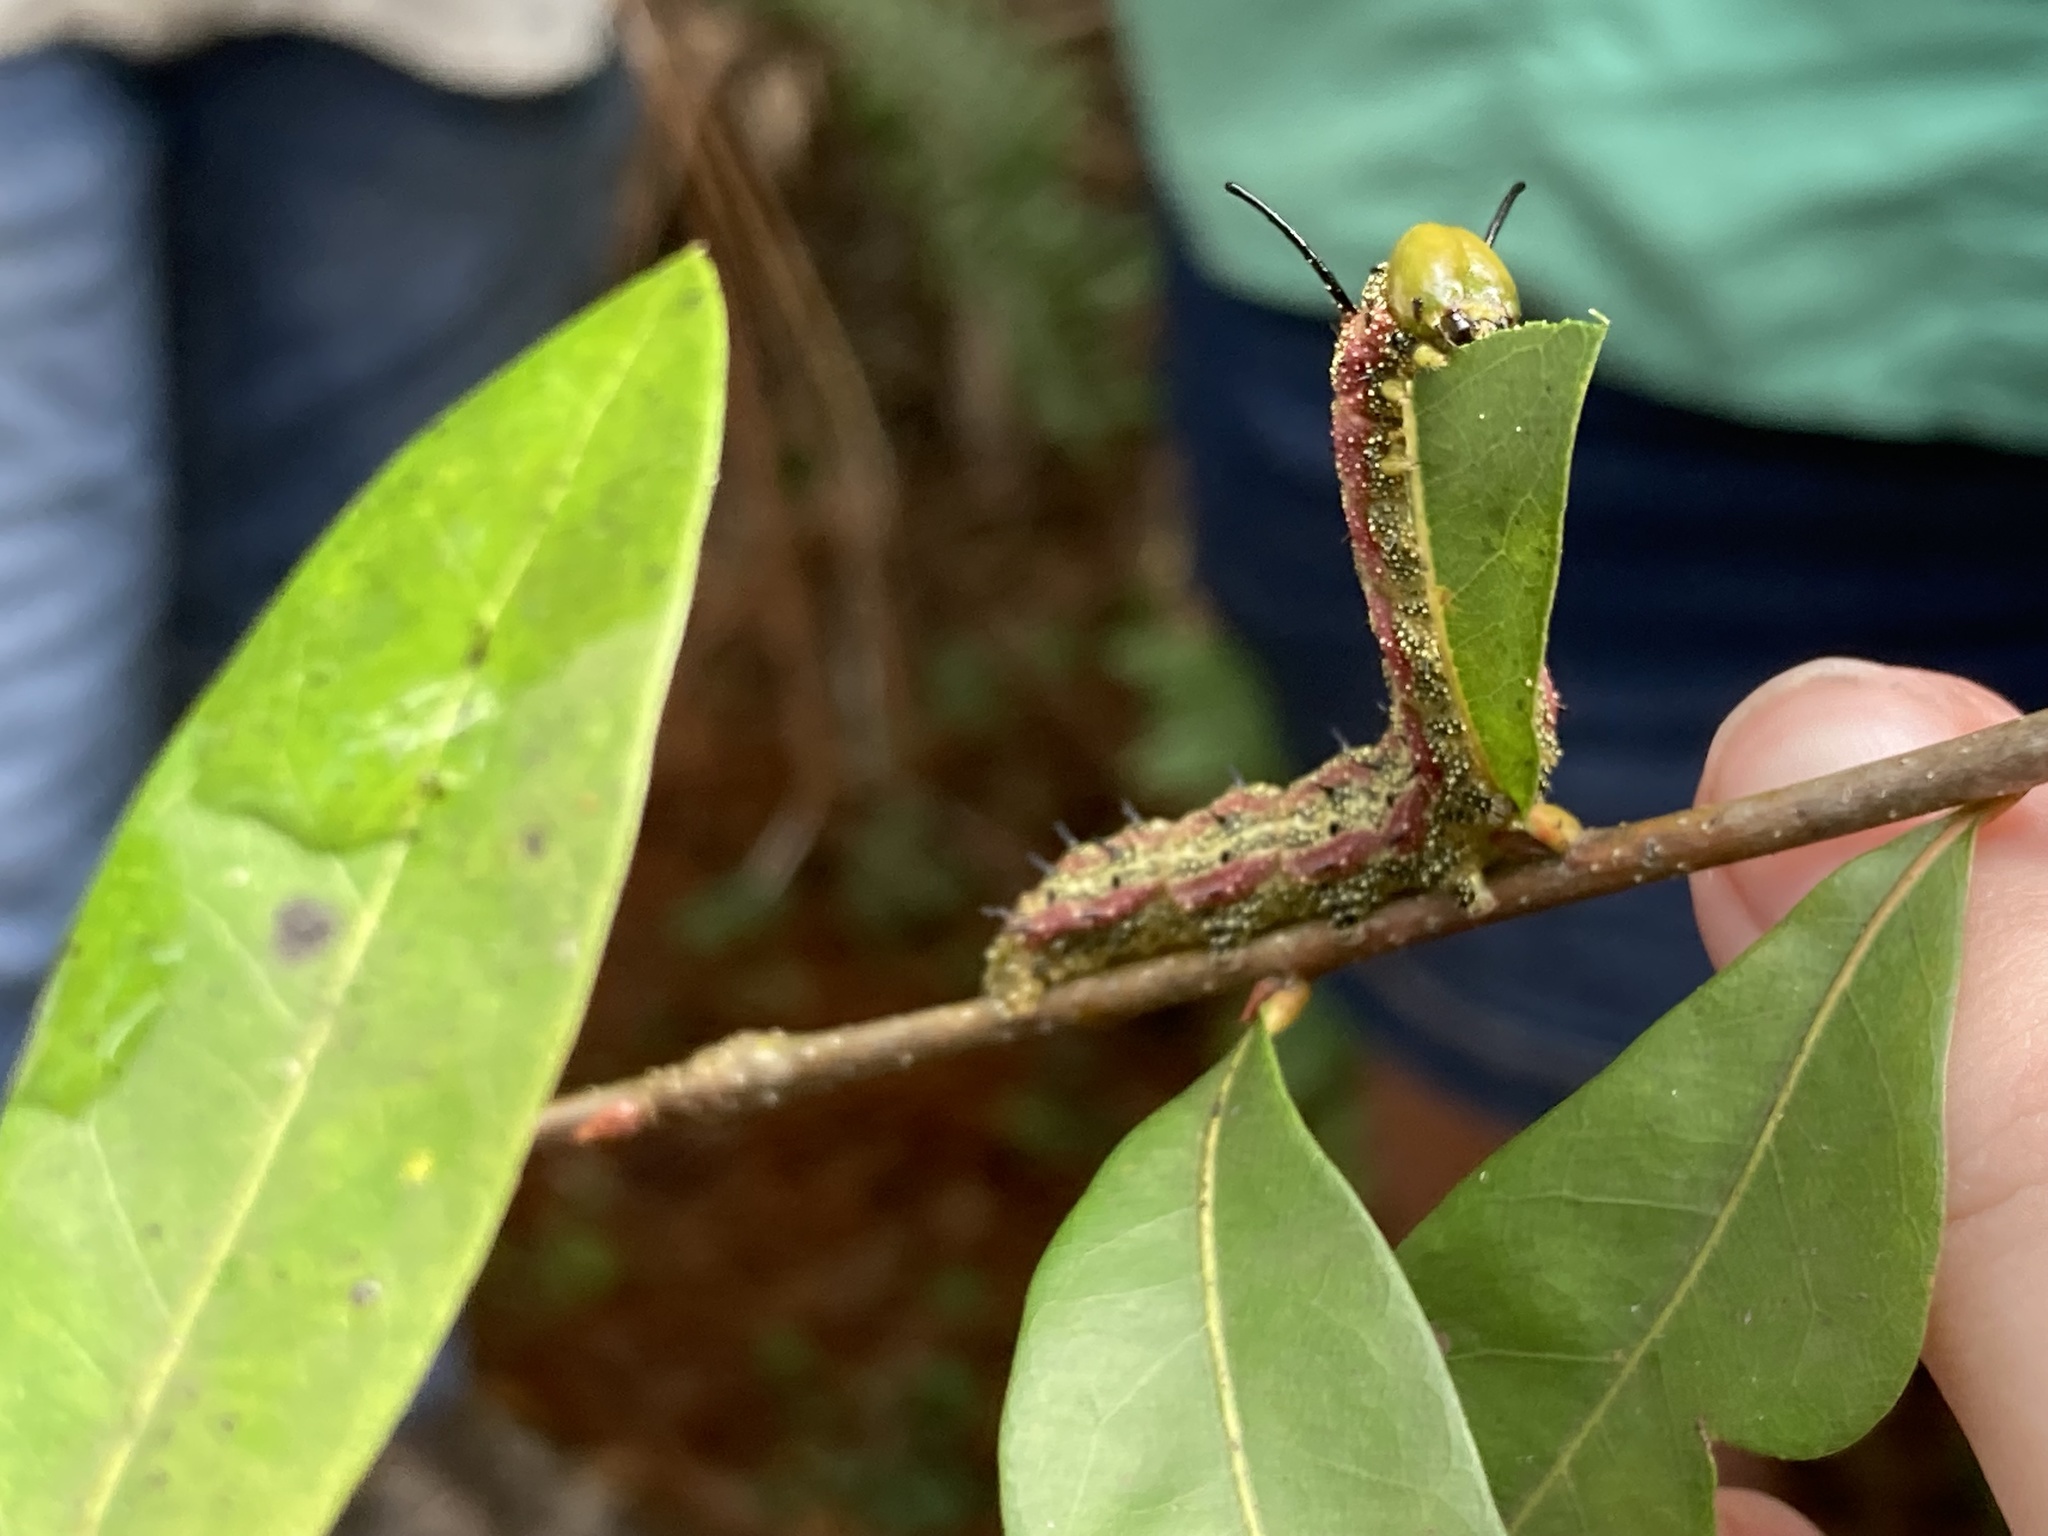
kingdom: Animalia
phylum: Arthropoda
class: Insecta
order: Lepidoptera
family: Saturniidae
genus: Anisota
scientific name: Anisota virginiensis
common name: Pink striped oakworm moth
